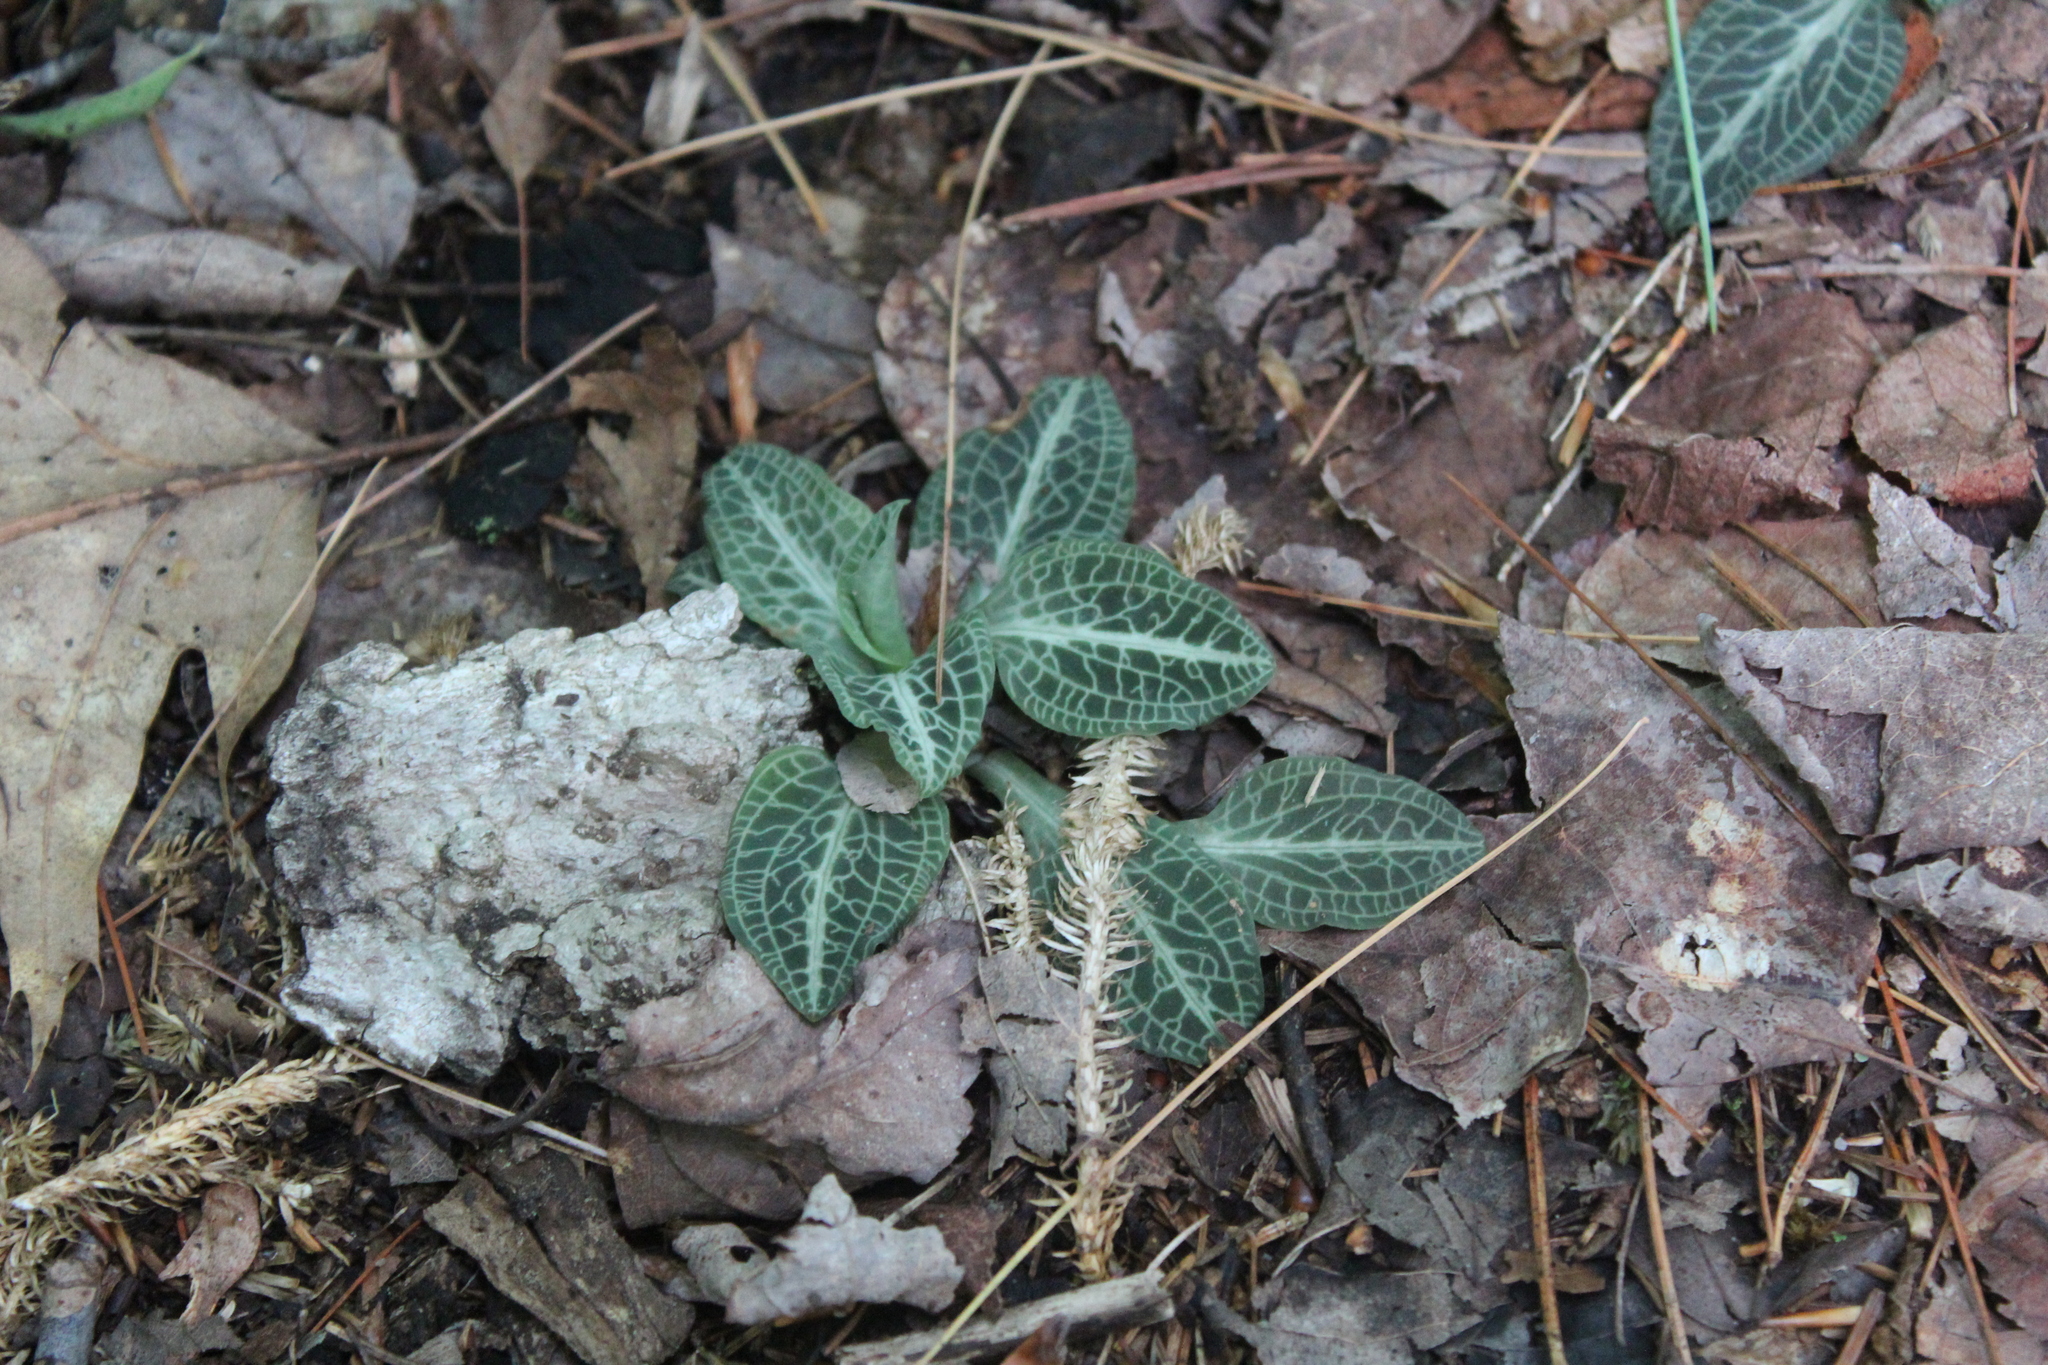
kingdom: Plantae
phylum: Tracheophyta
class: Liliopsida
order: Asparagales
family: Orchidaceae
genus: Goodyera
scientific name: Goodyera pubescens
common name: Downy rattlesnake-plantain
